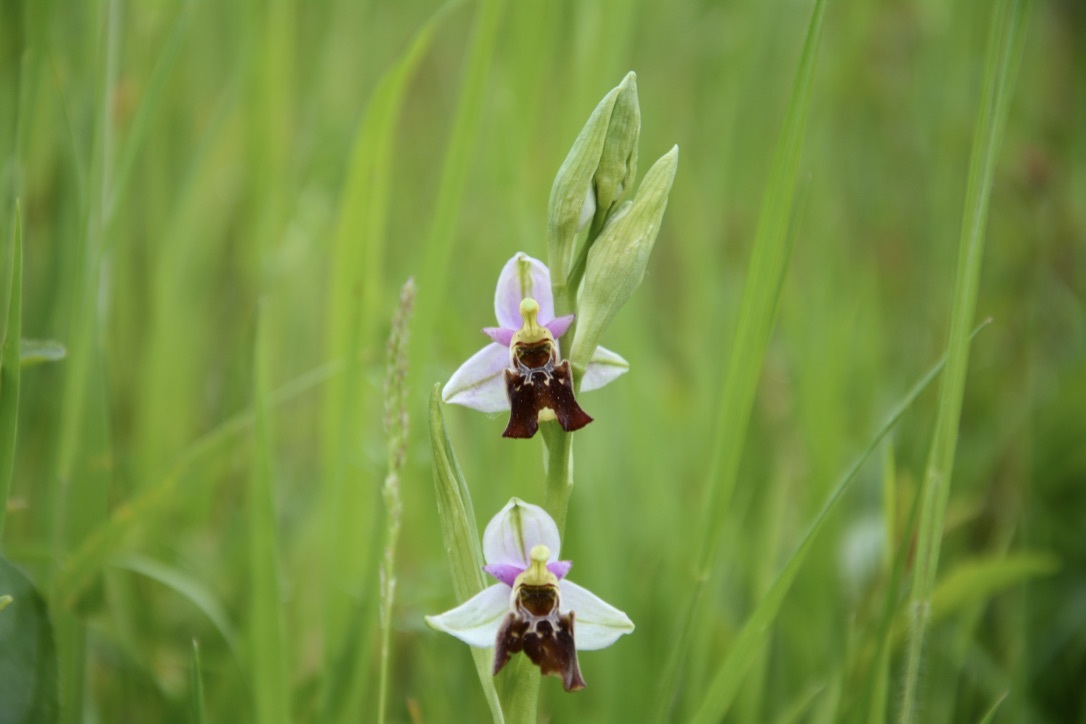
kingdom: Plantae
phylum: Tracheophyta
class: Liliopsida
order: Asparagales
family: Orchidaceae
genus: Ophrys
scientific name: Ophrys holosericea
